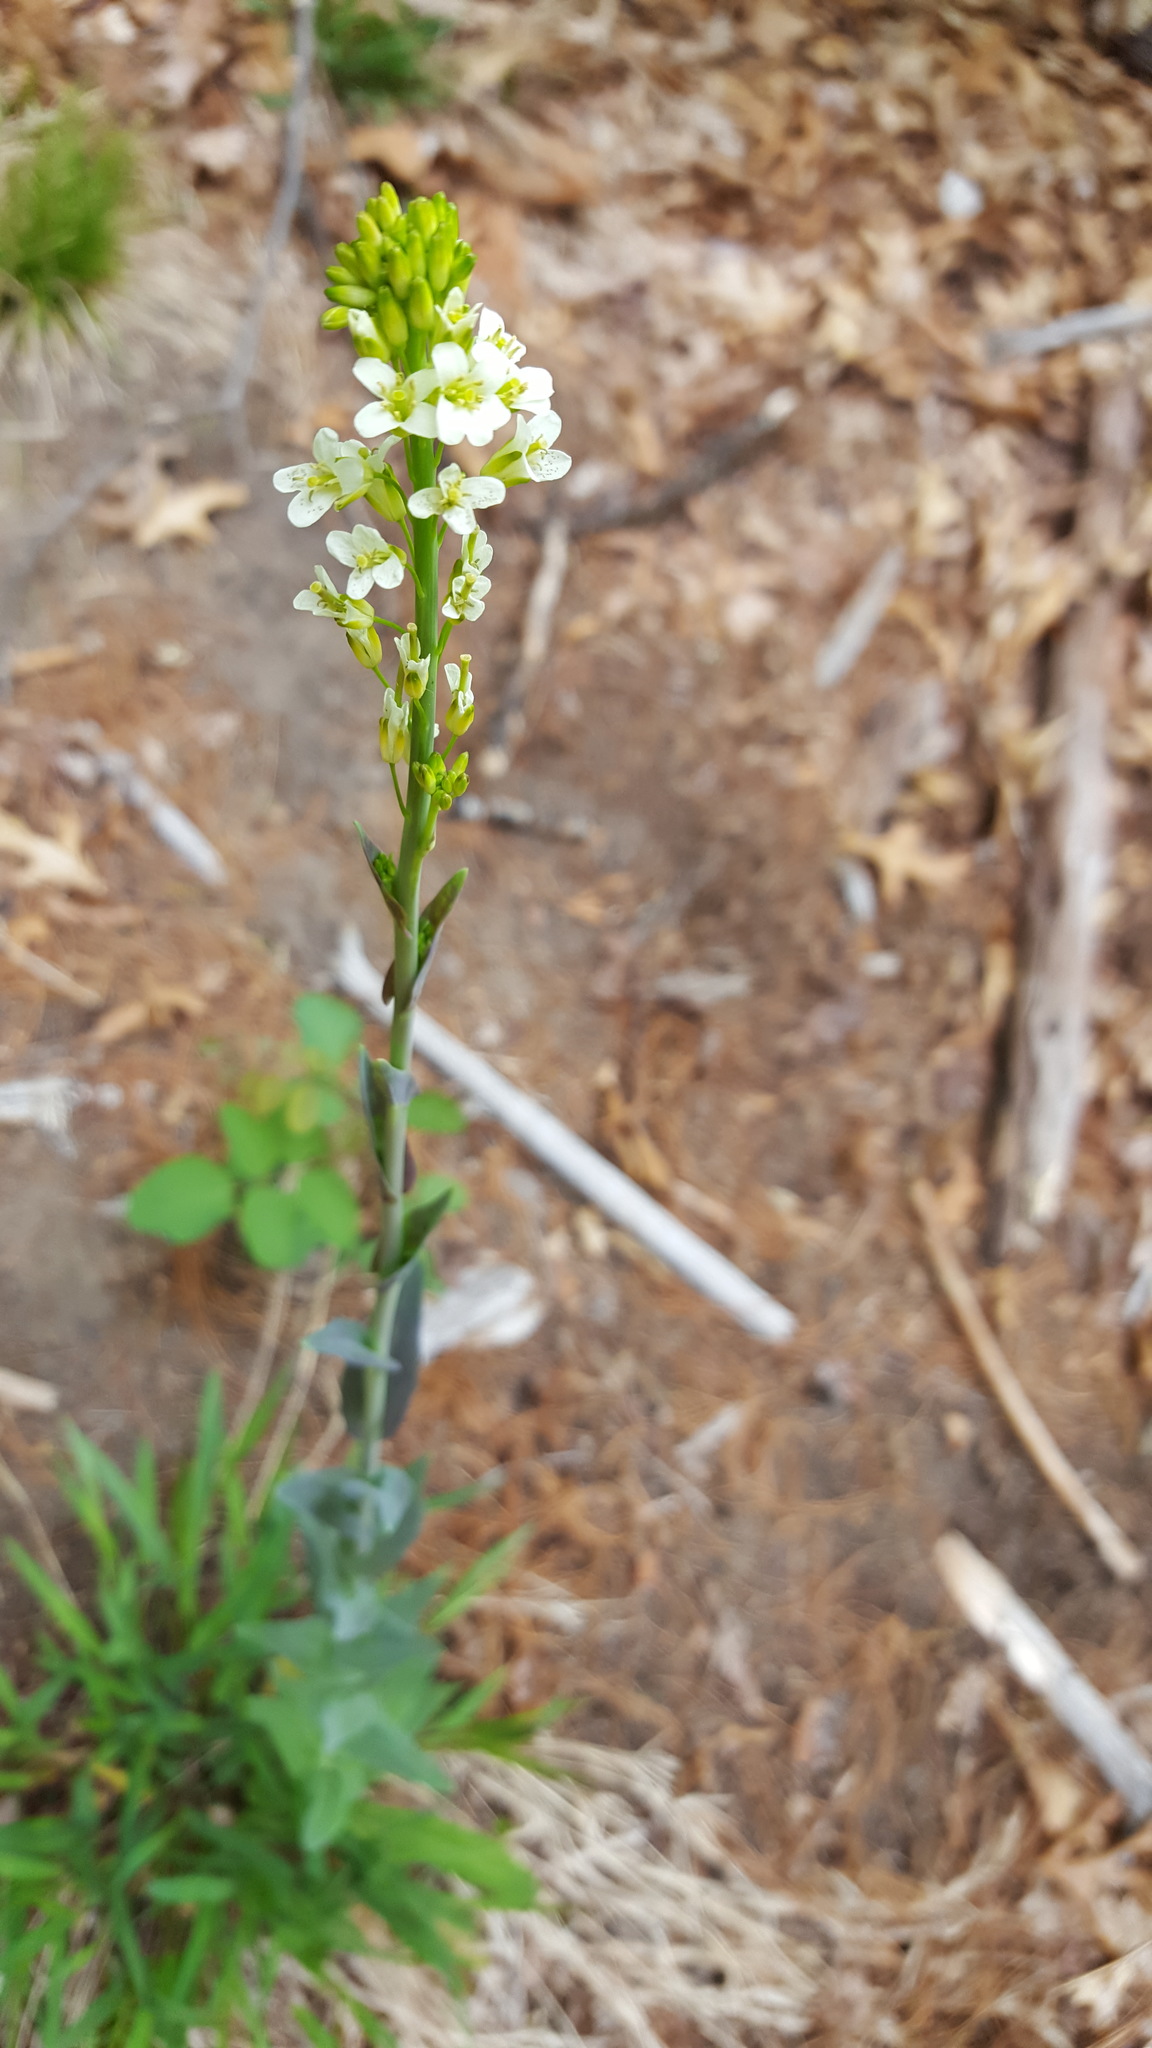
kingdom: Plantae
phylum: Tracheophyta
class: Magnoliopsida
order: Brassicales
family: Brassicaceae
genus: Turritis
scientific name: Turritis glabra
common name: Tower rockcress
